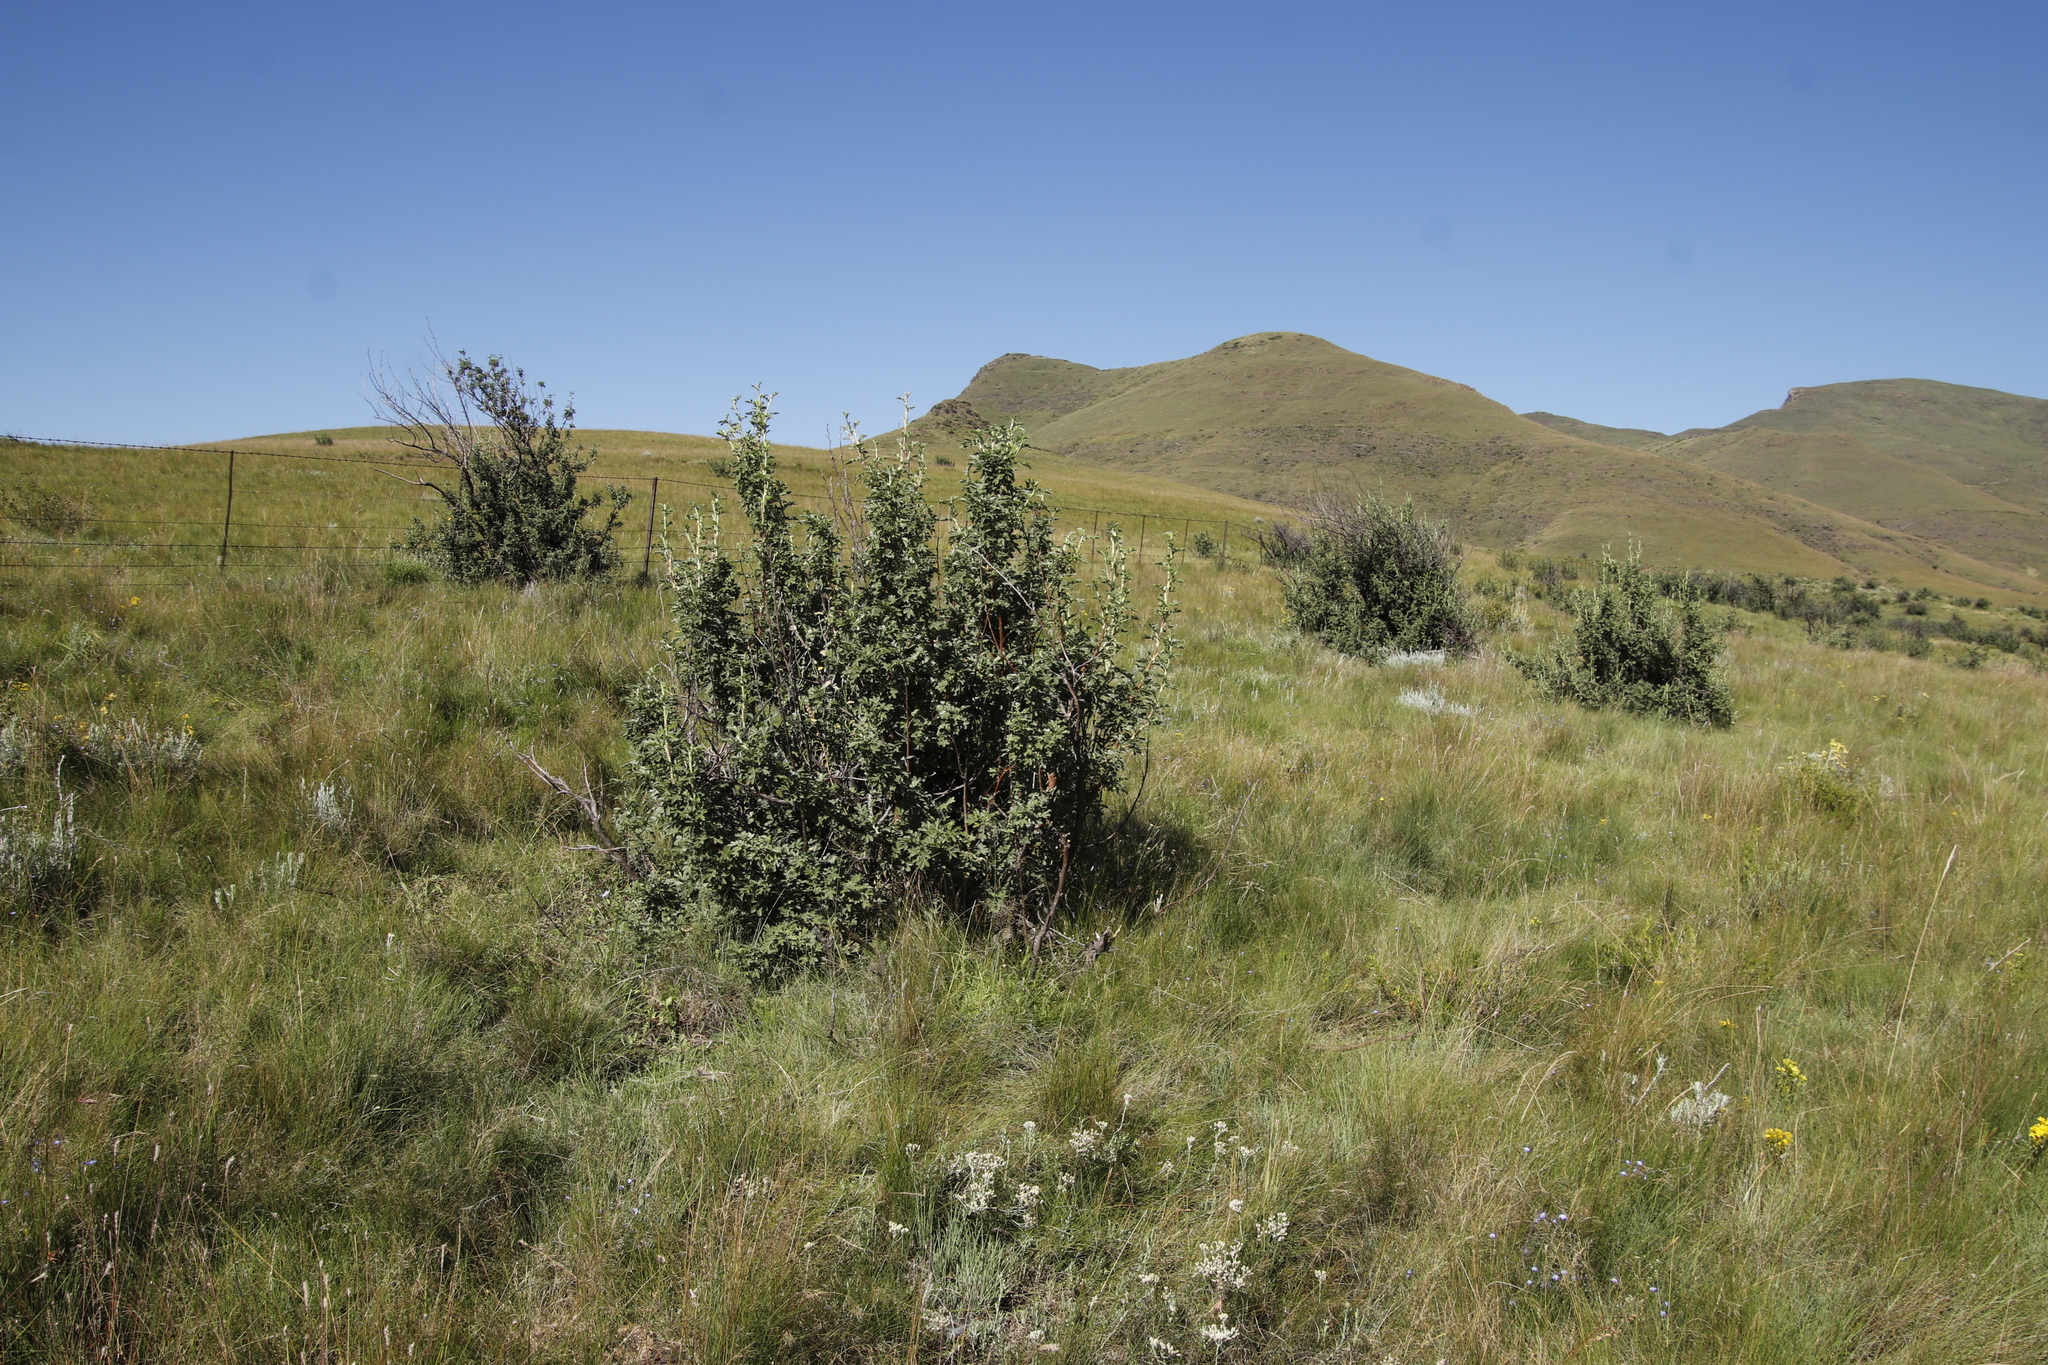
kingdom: Plantae
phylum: Tracheophyta
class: Magnoliopsida
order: Rosales
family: Rosaceae
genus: Leucosidea
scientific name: Leucosidea sericea
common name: Oldwood
